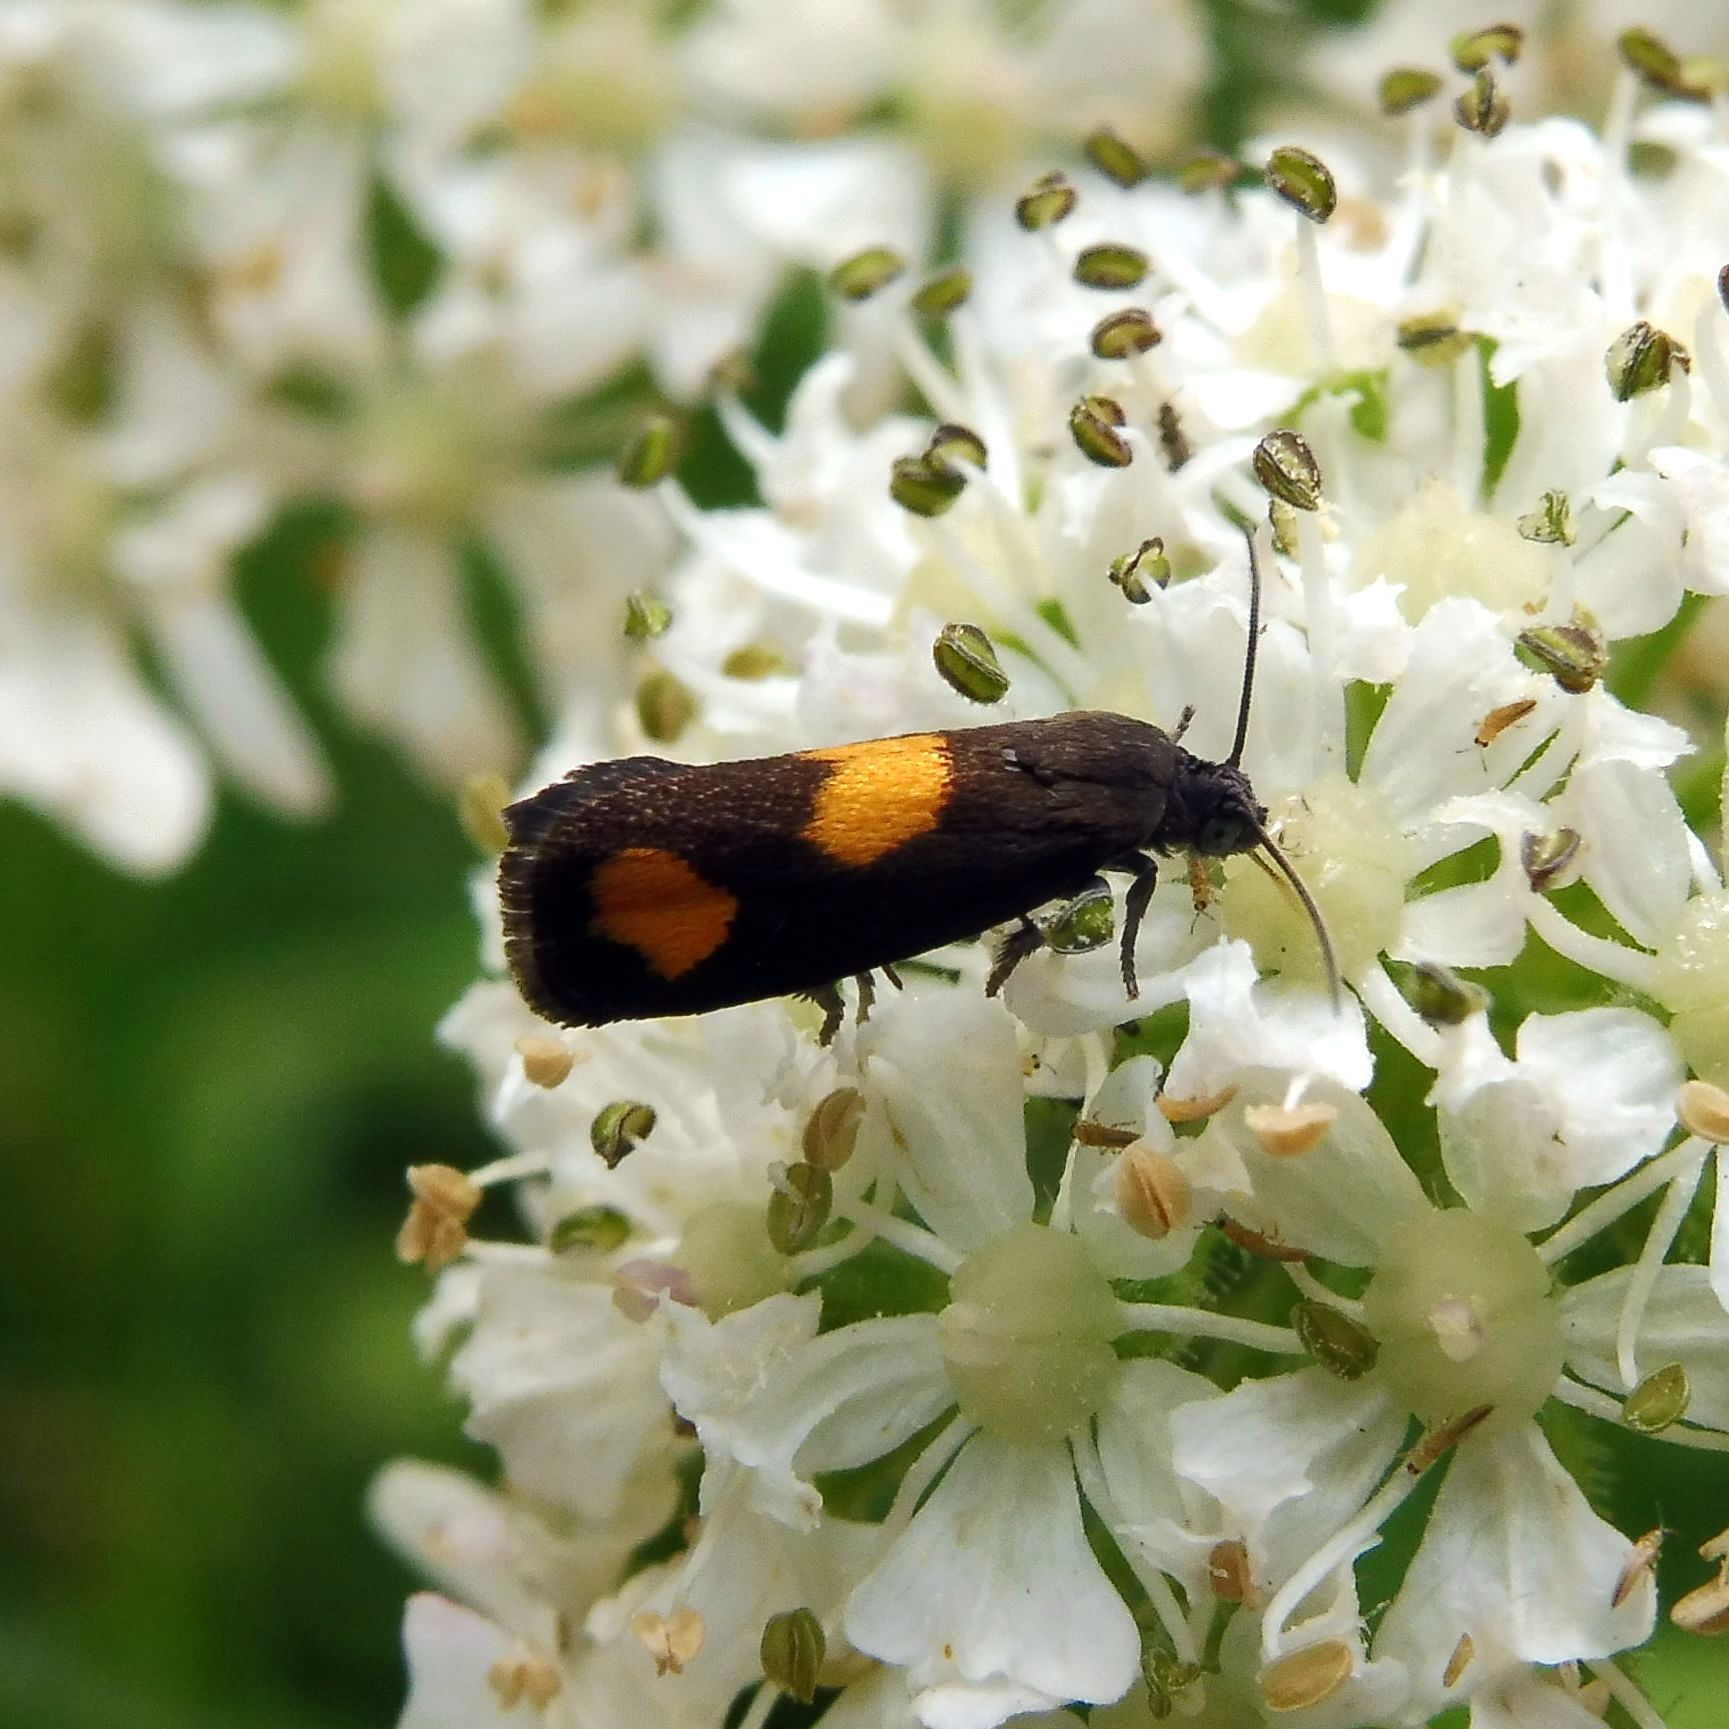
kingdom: Animalia
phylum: Arthropoda
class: Insecta
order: Lepidoptera
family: Tortricidae
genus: Pammene
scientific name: Pammene aurana
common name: Orange-spot piercer
